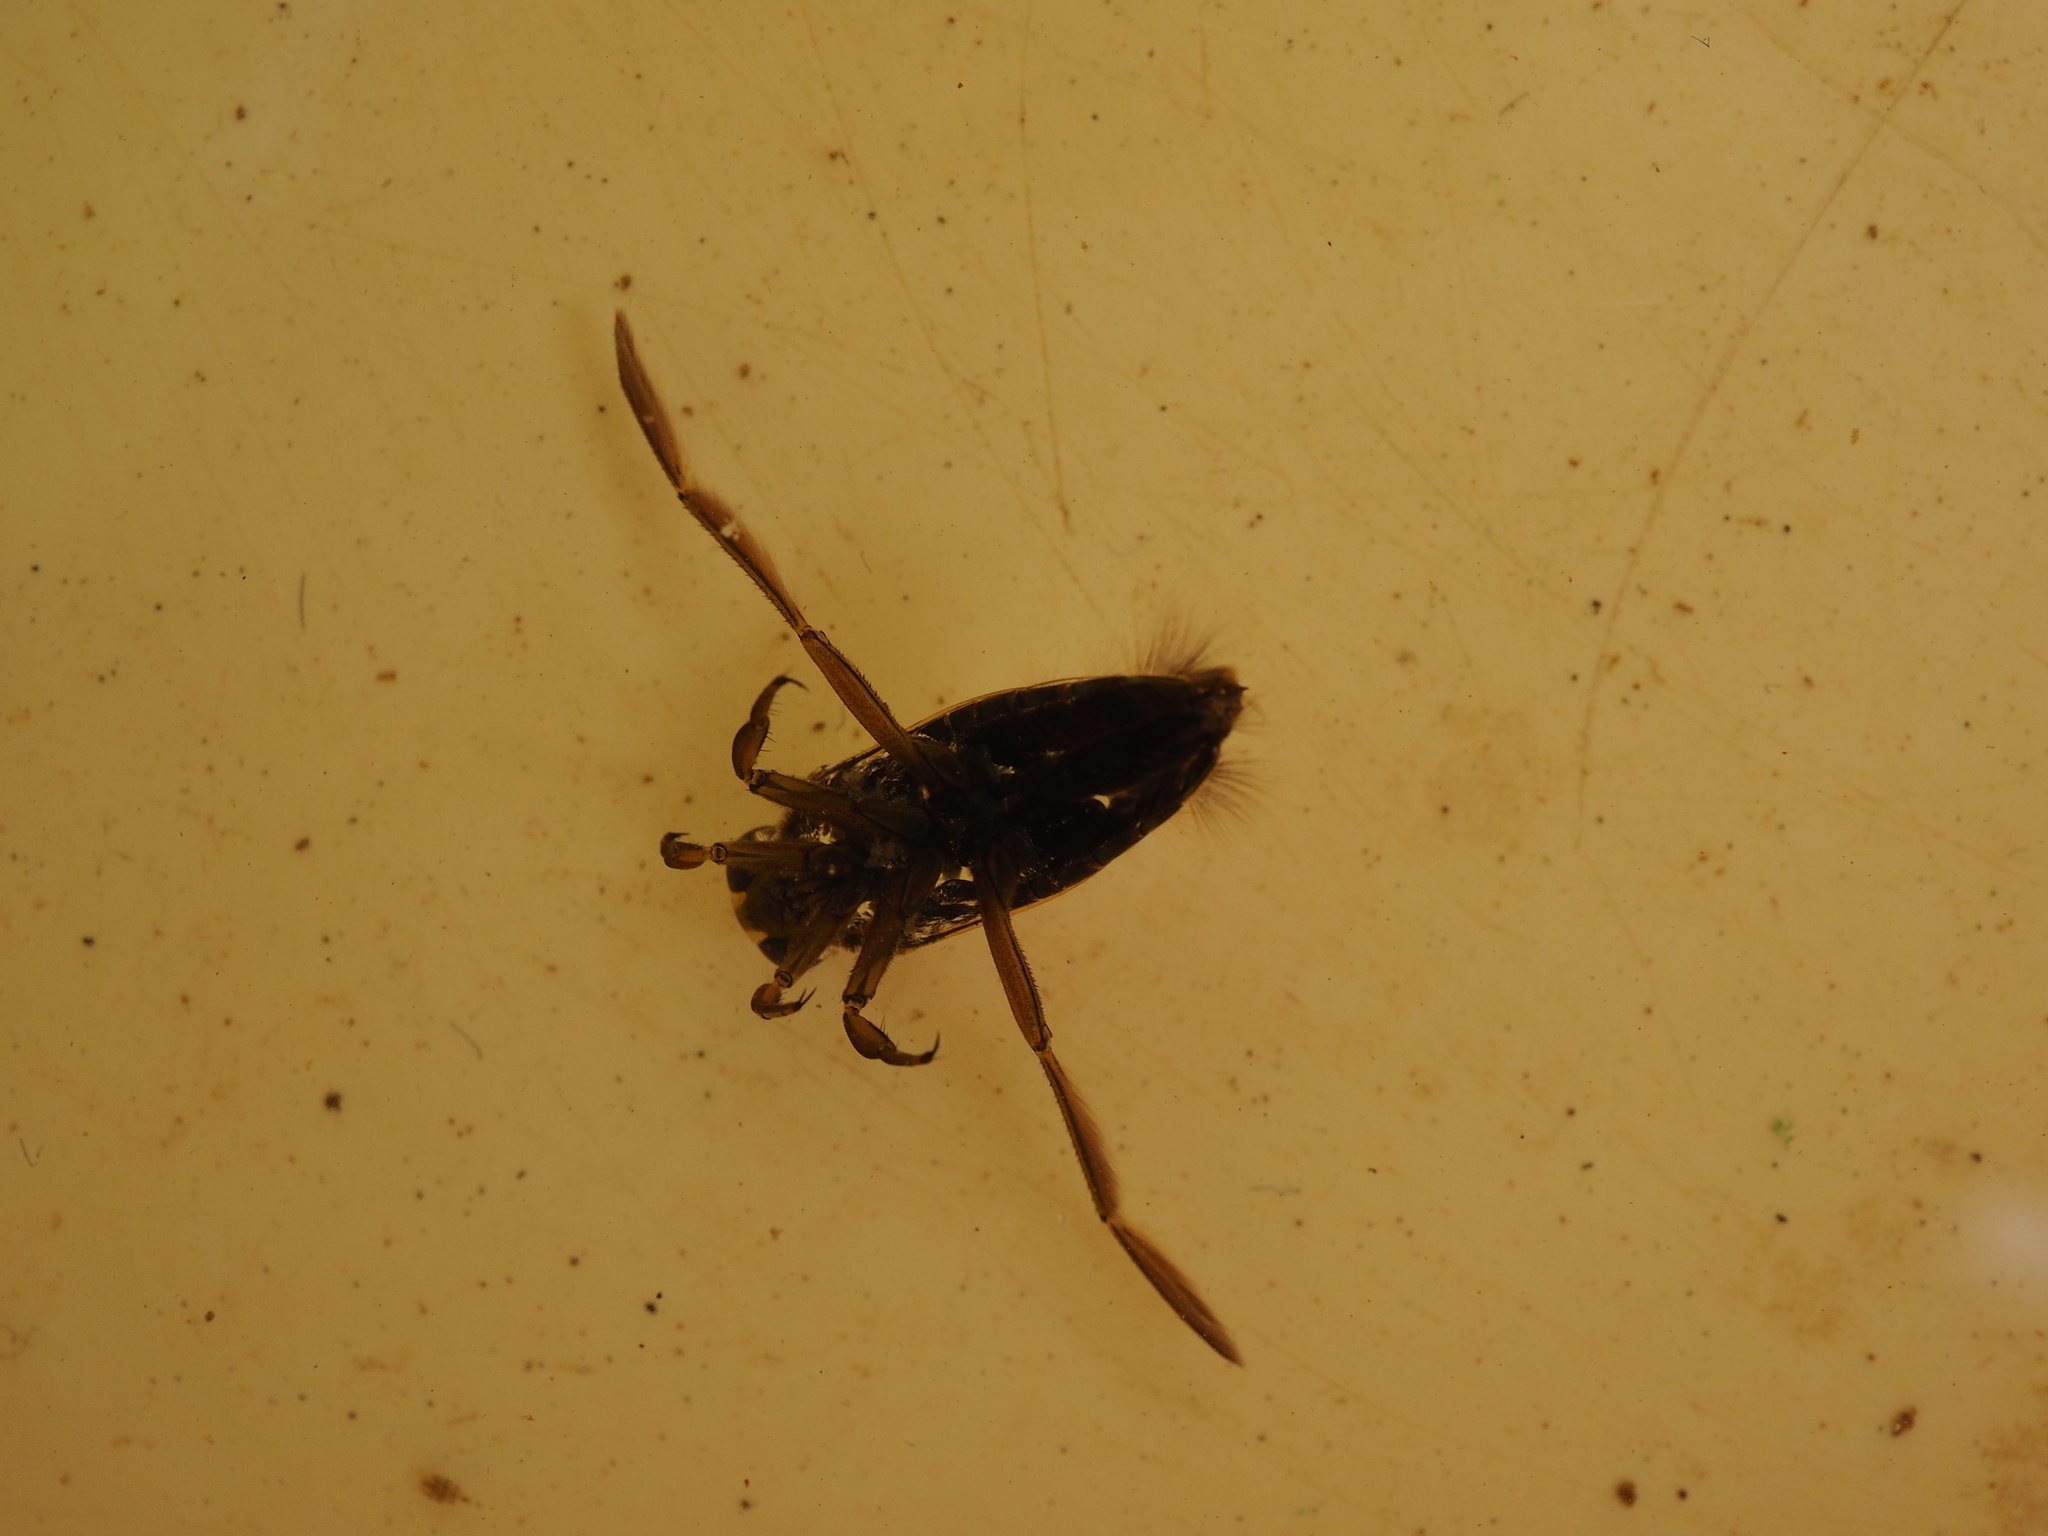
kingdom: Animalia
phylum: Arthropoda
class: Insecta
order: Hemiptera
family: Notonectidae
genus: Notonecta
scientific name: Notonecta
